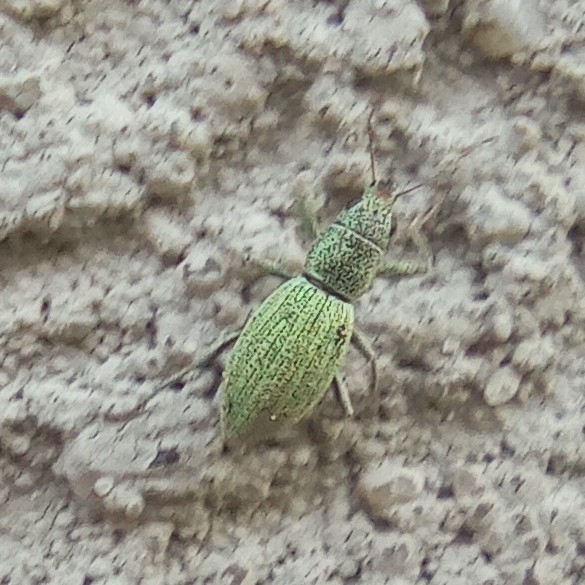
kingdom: Animalia
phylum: Arthropoda
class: Insecta
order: Coleoptera
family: Curculionidae
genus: Eusomus
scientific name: Eusomus ovulum
